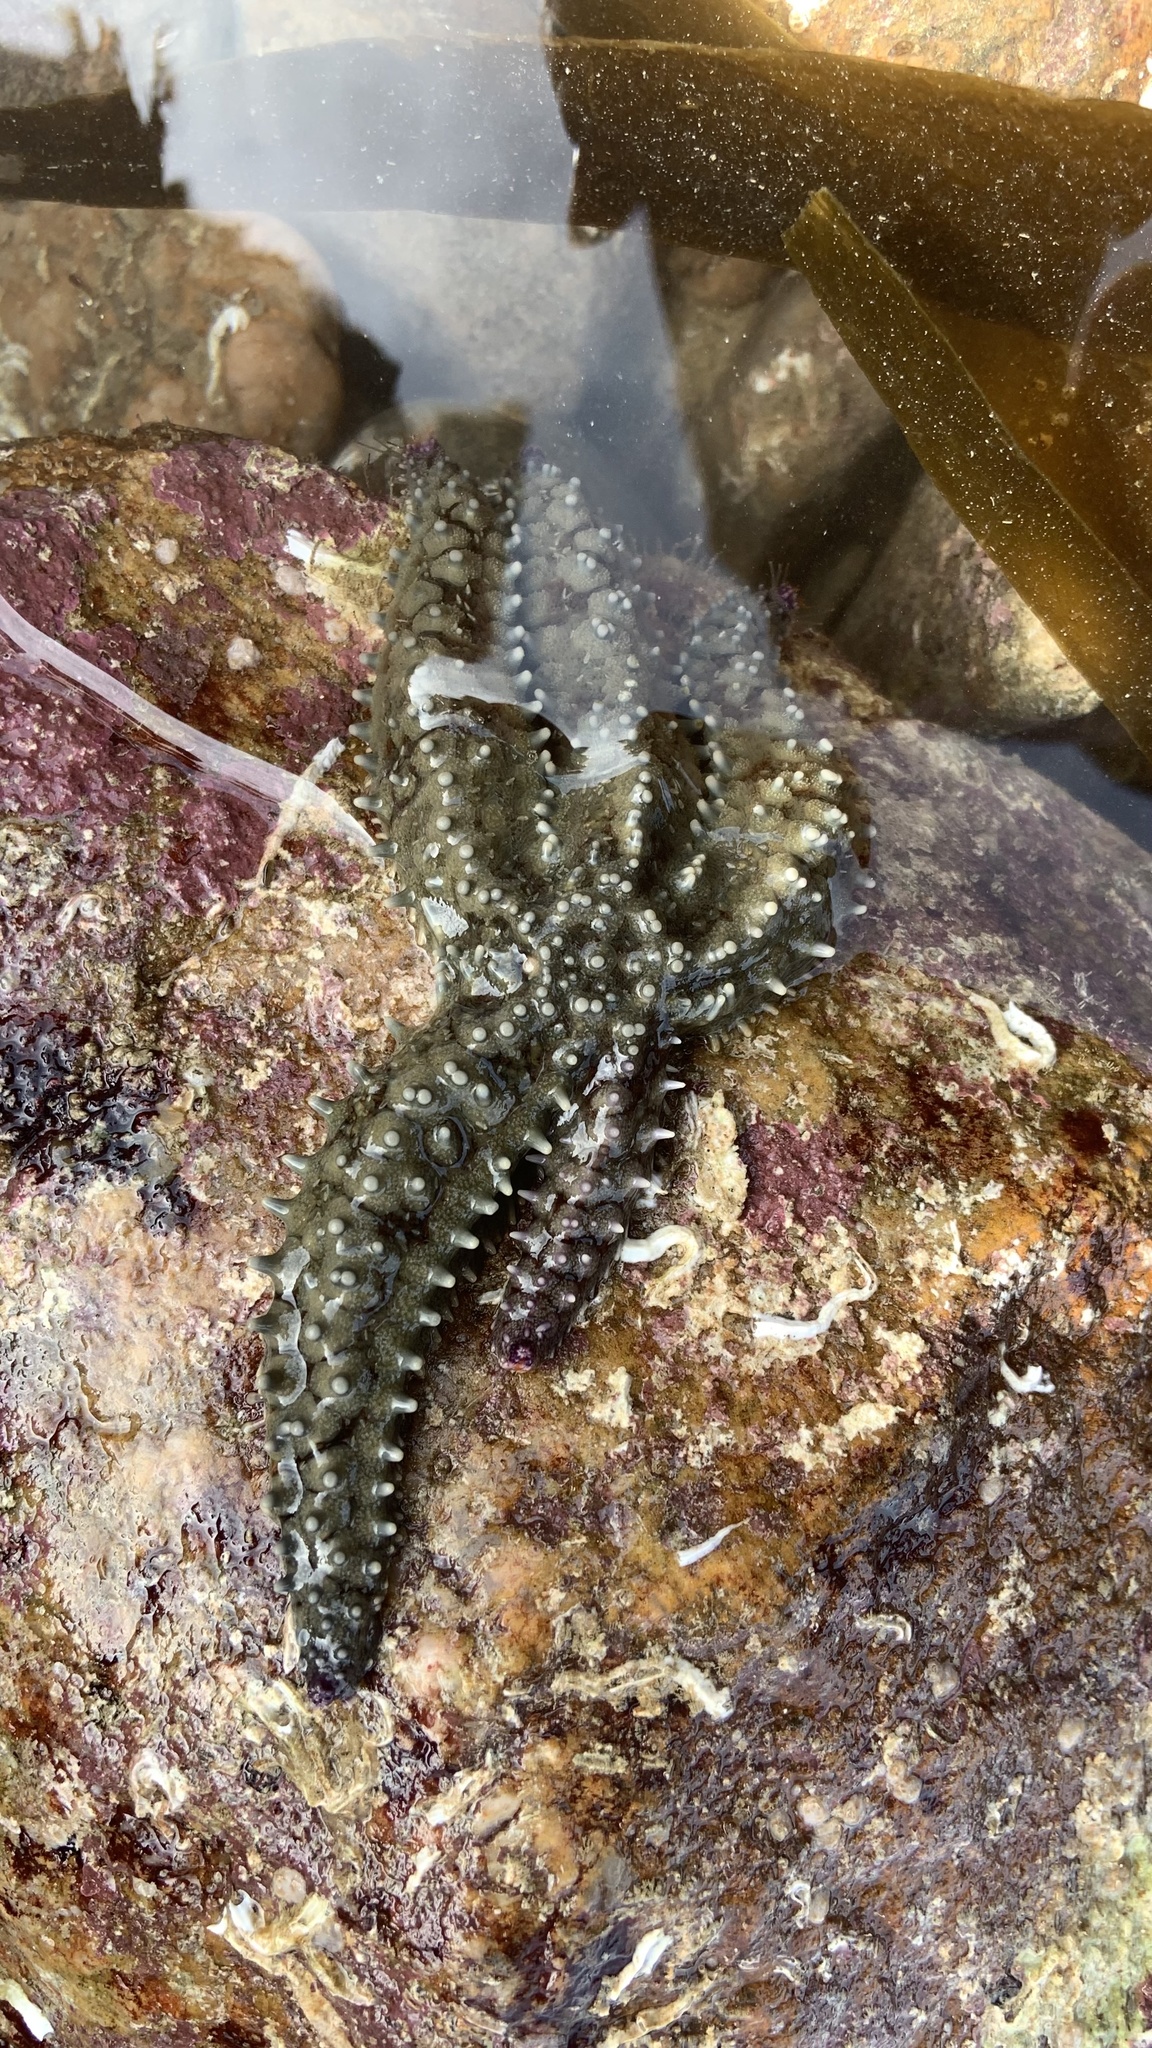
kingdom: Animalia
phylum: Echinodermata
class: Asteroidea
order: Forcipulatida
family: Asteriidae
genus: Marthasterias
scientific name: Marthasterias glacialis
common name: Spiny starfish
